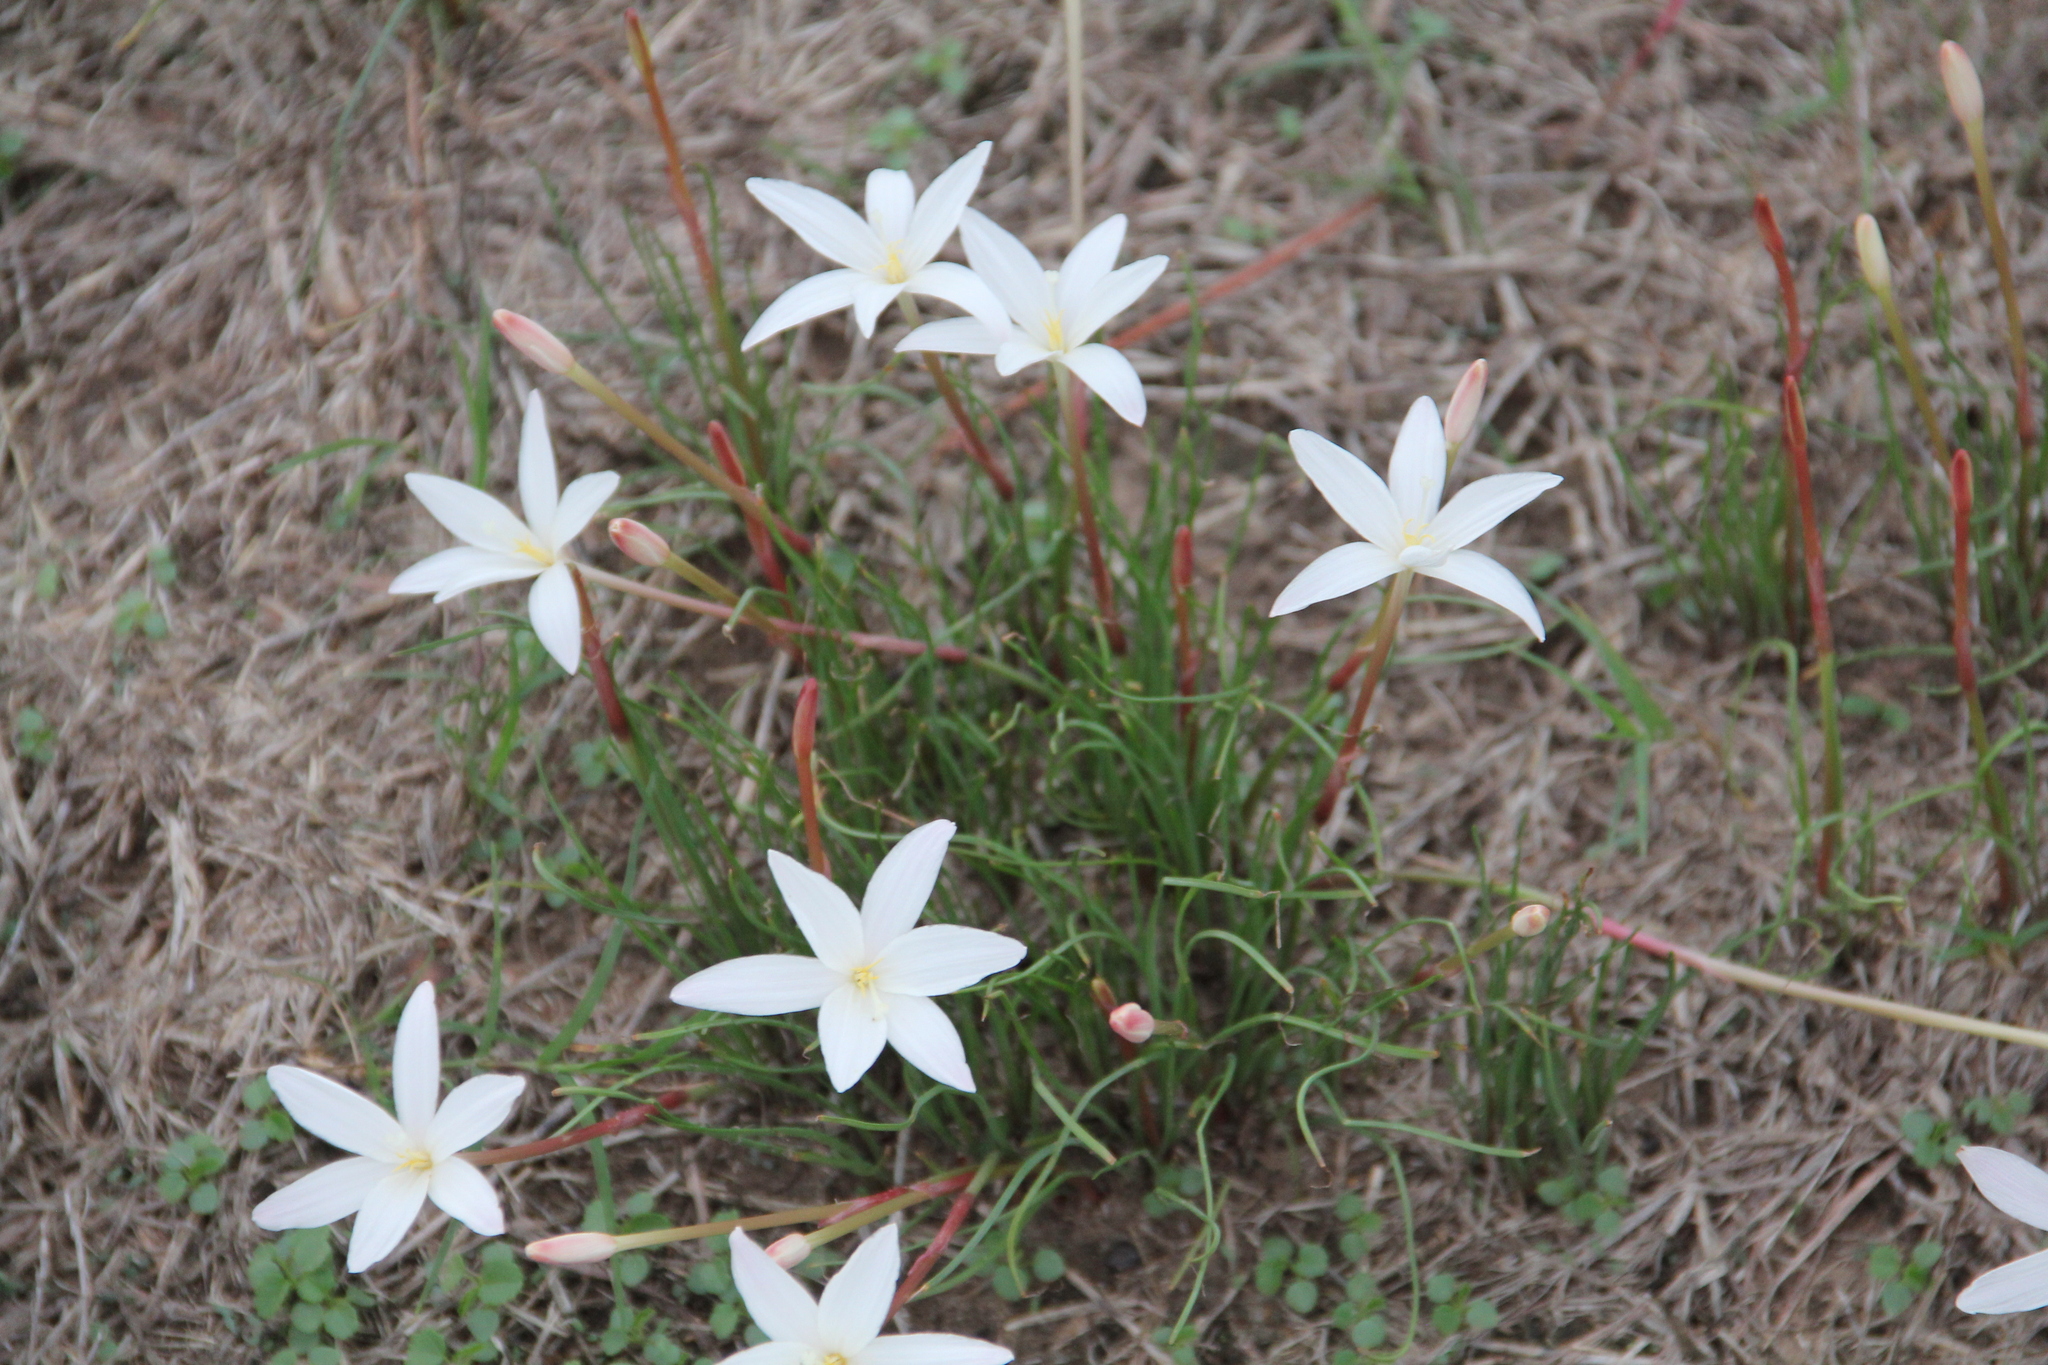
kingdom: Plantae
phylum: Tracheophyta
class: Liliopsida
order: Asparagales
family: Amaryllidaceae
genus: Zephyranthes
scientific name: Zephyranthes traubii
